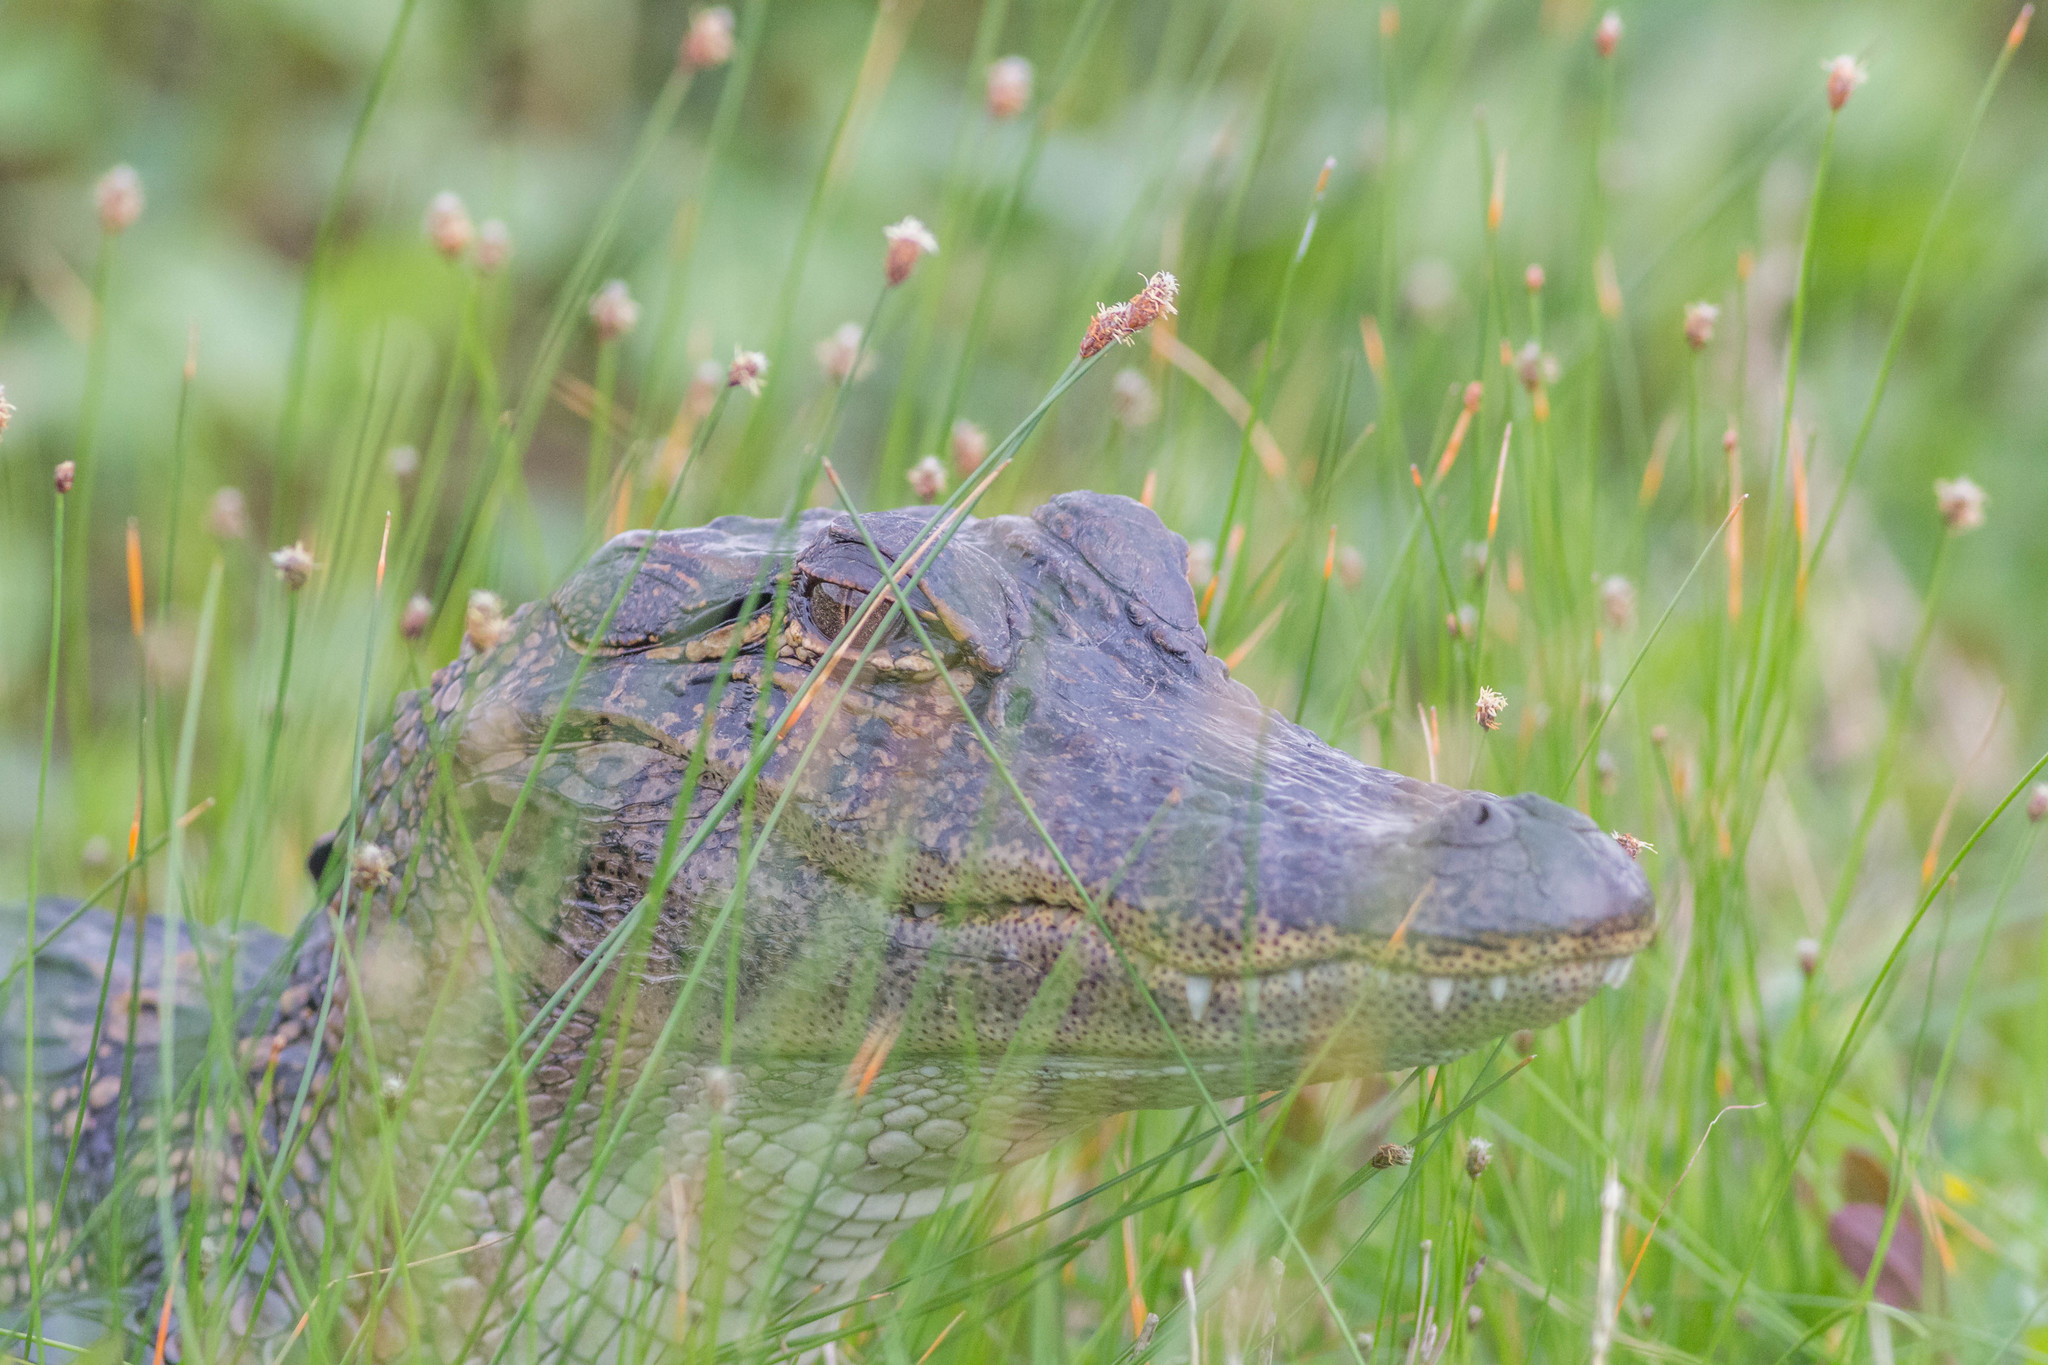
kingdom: Animalia
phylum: Chordata
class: Crocodylia
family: Alligatoridae
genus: Alligator
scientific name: Alligator mississippiensis
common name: American alligator
